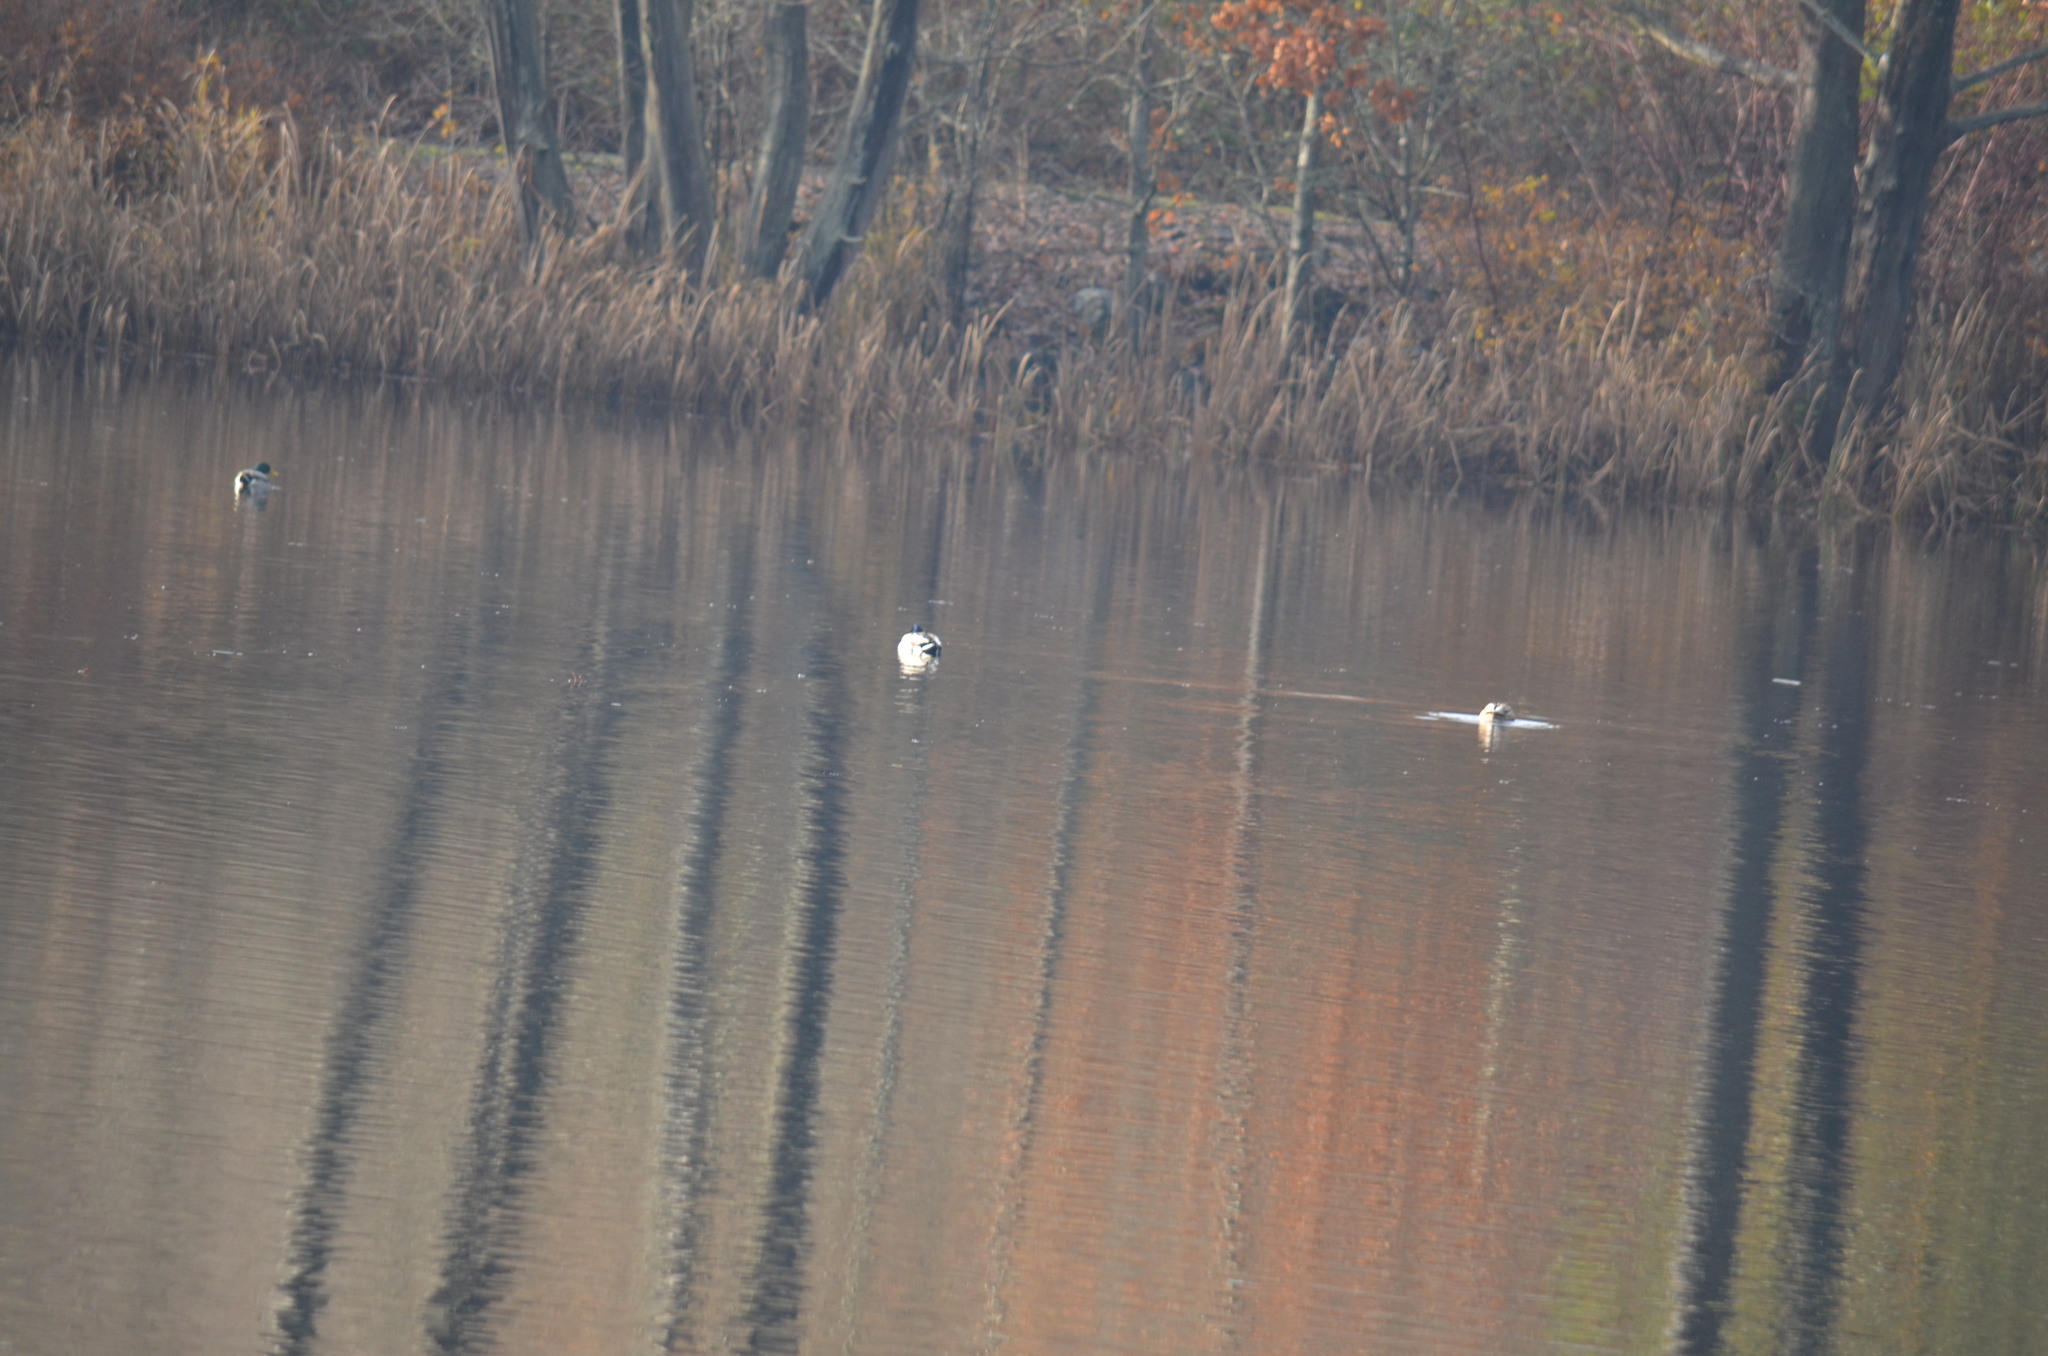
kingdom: Animalia
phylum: Chordata
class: Aves
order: Anseriformes
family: Anatidae
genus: Anas
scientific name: Anas platyrhynchos
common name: Mallard
